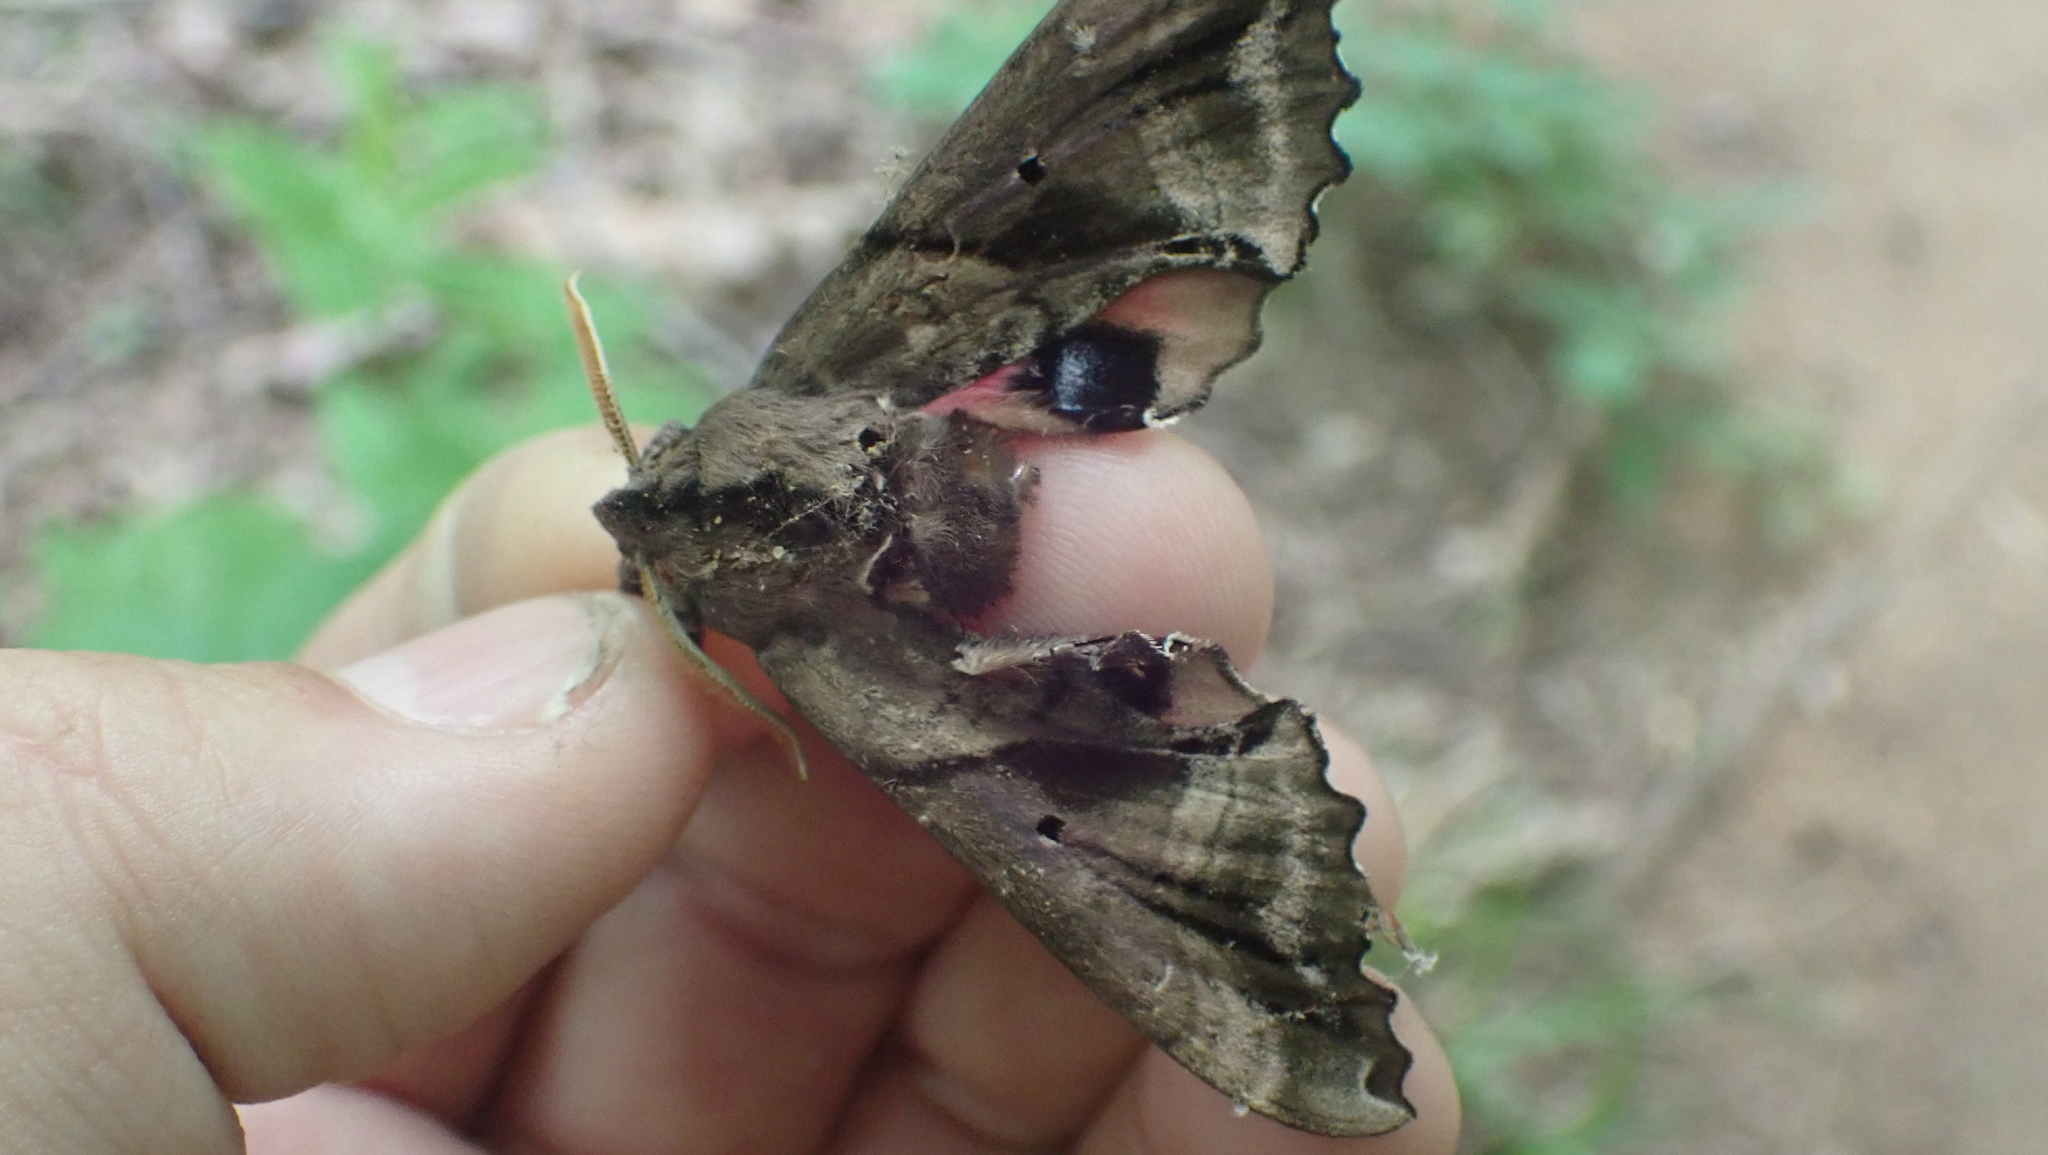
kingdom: Animalia
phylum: Arthropoda
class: Insecta
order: Lepidoptera
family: Sphingidae
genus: Paonias
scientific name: Paonias excaecata
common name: Blind-eyed sphinx
